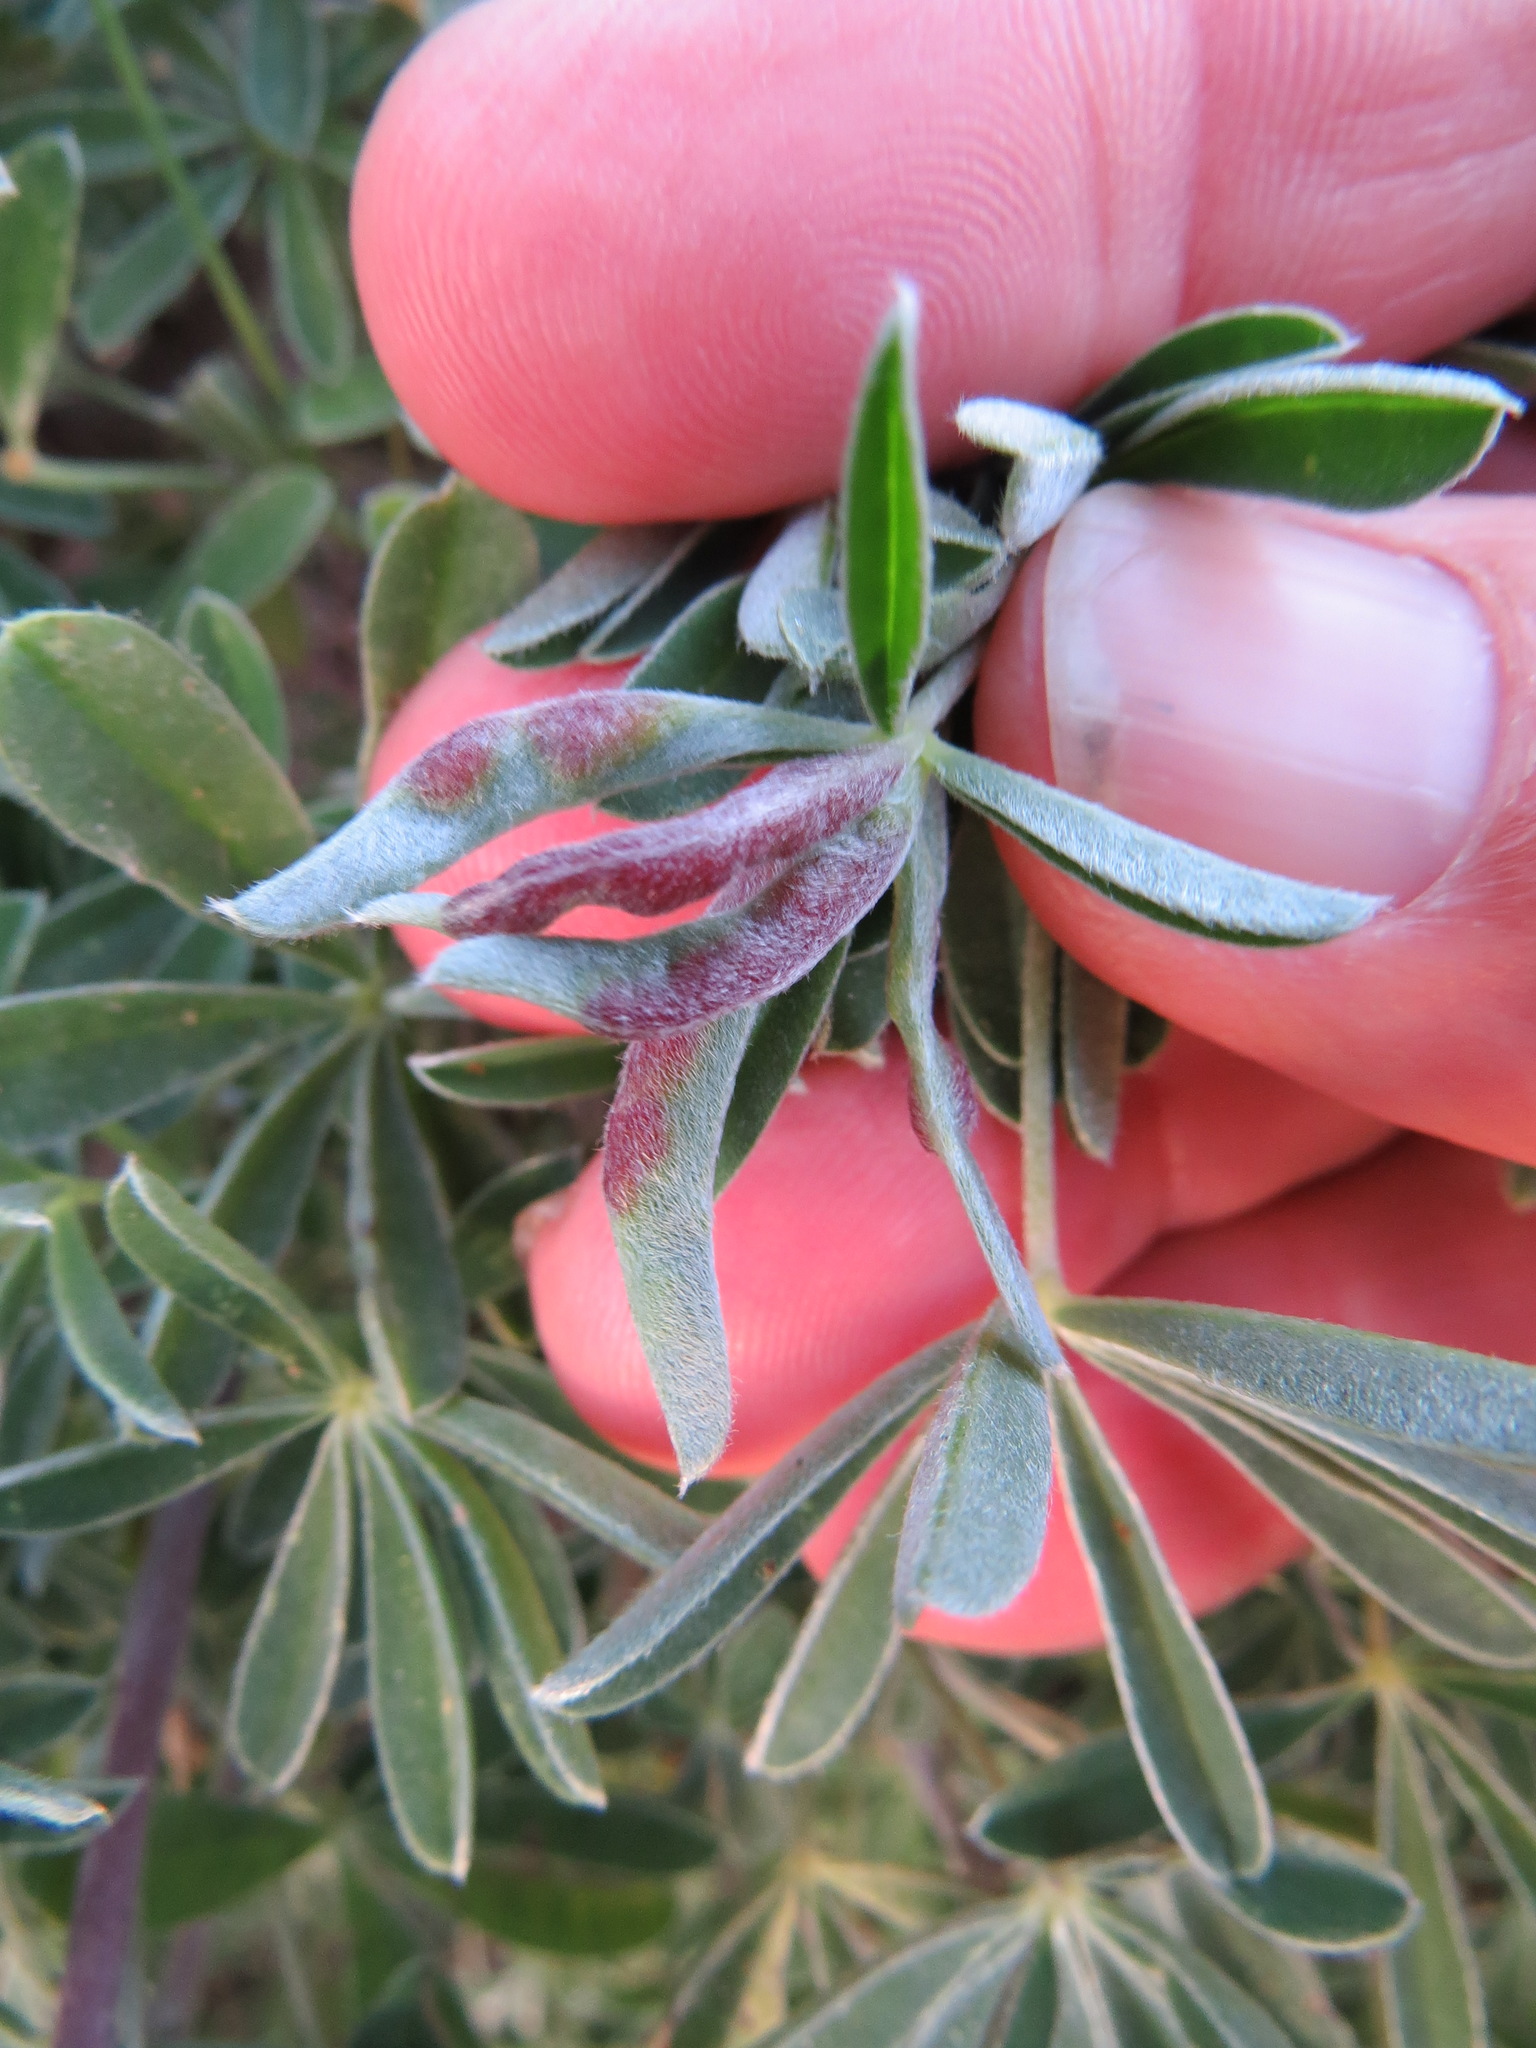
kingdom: Animalia
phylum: Arthropoda
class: Insecta
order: Diptera
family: Cecidomyiidae
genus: Dasineura
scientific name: Dasineura lupinorum
